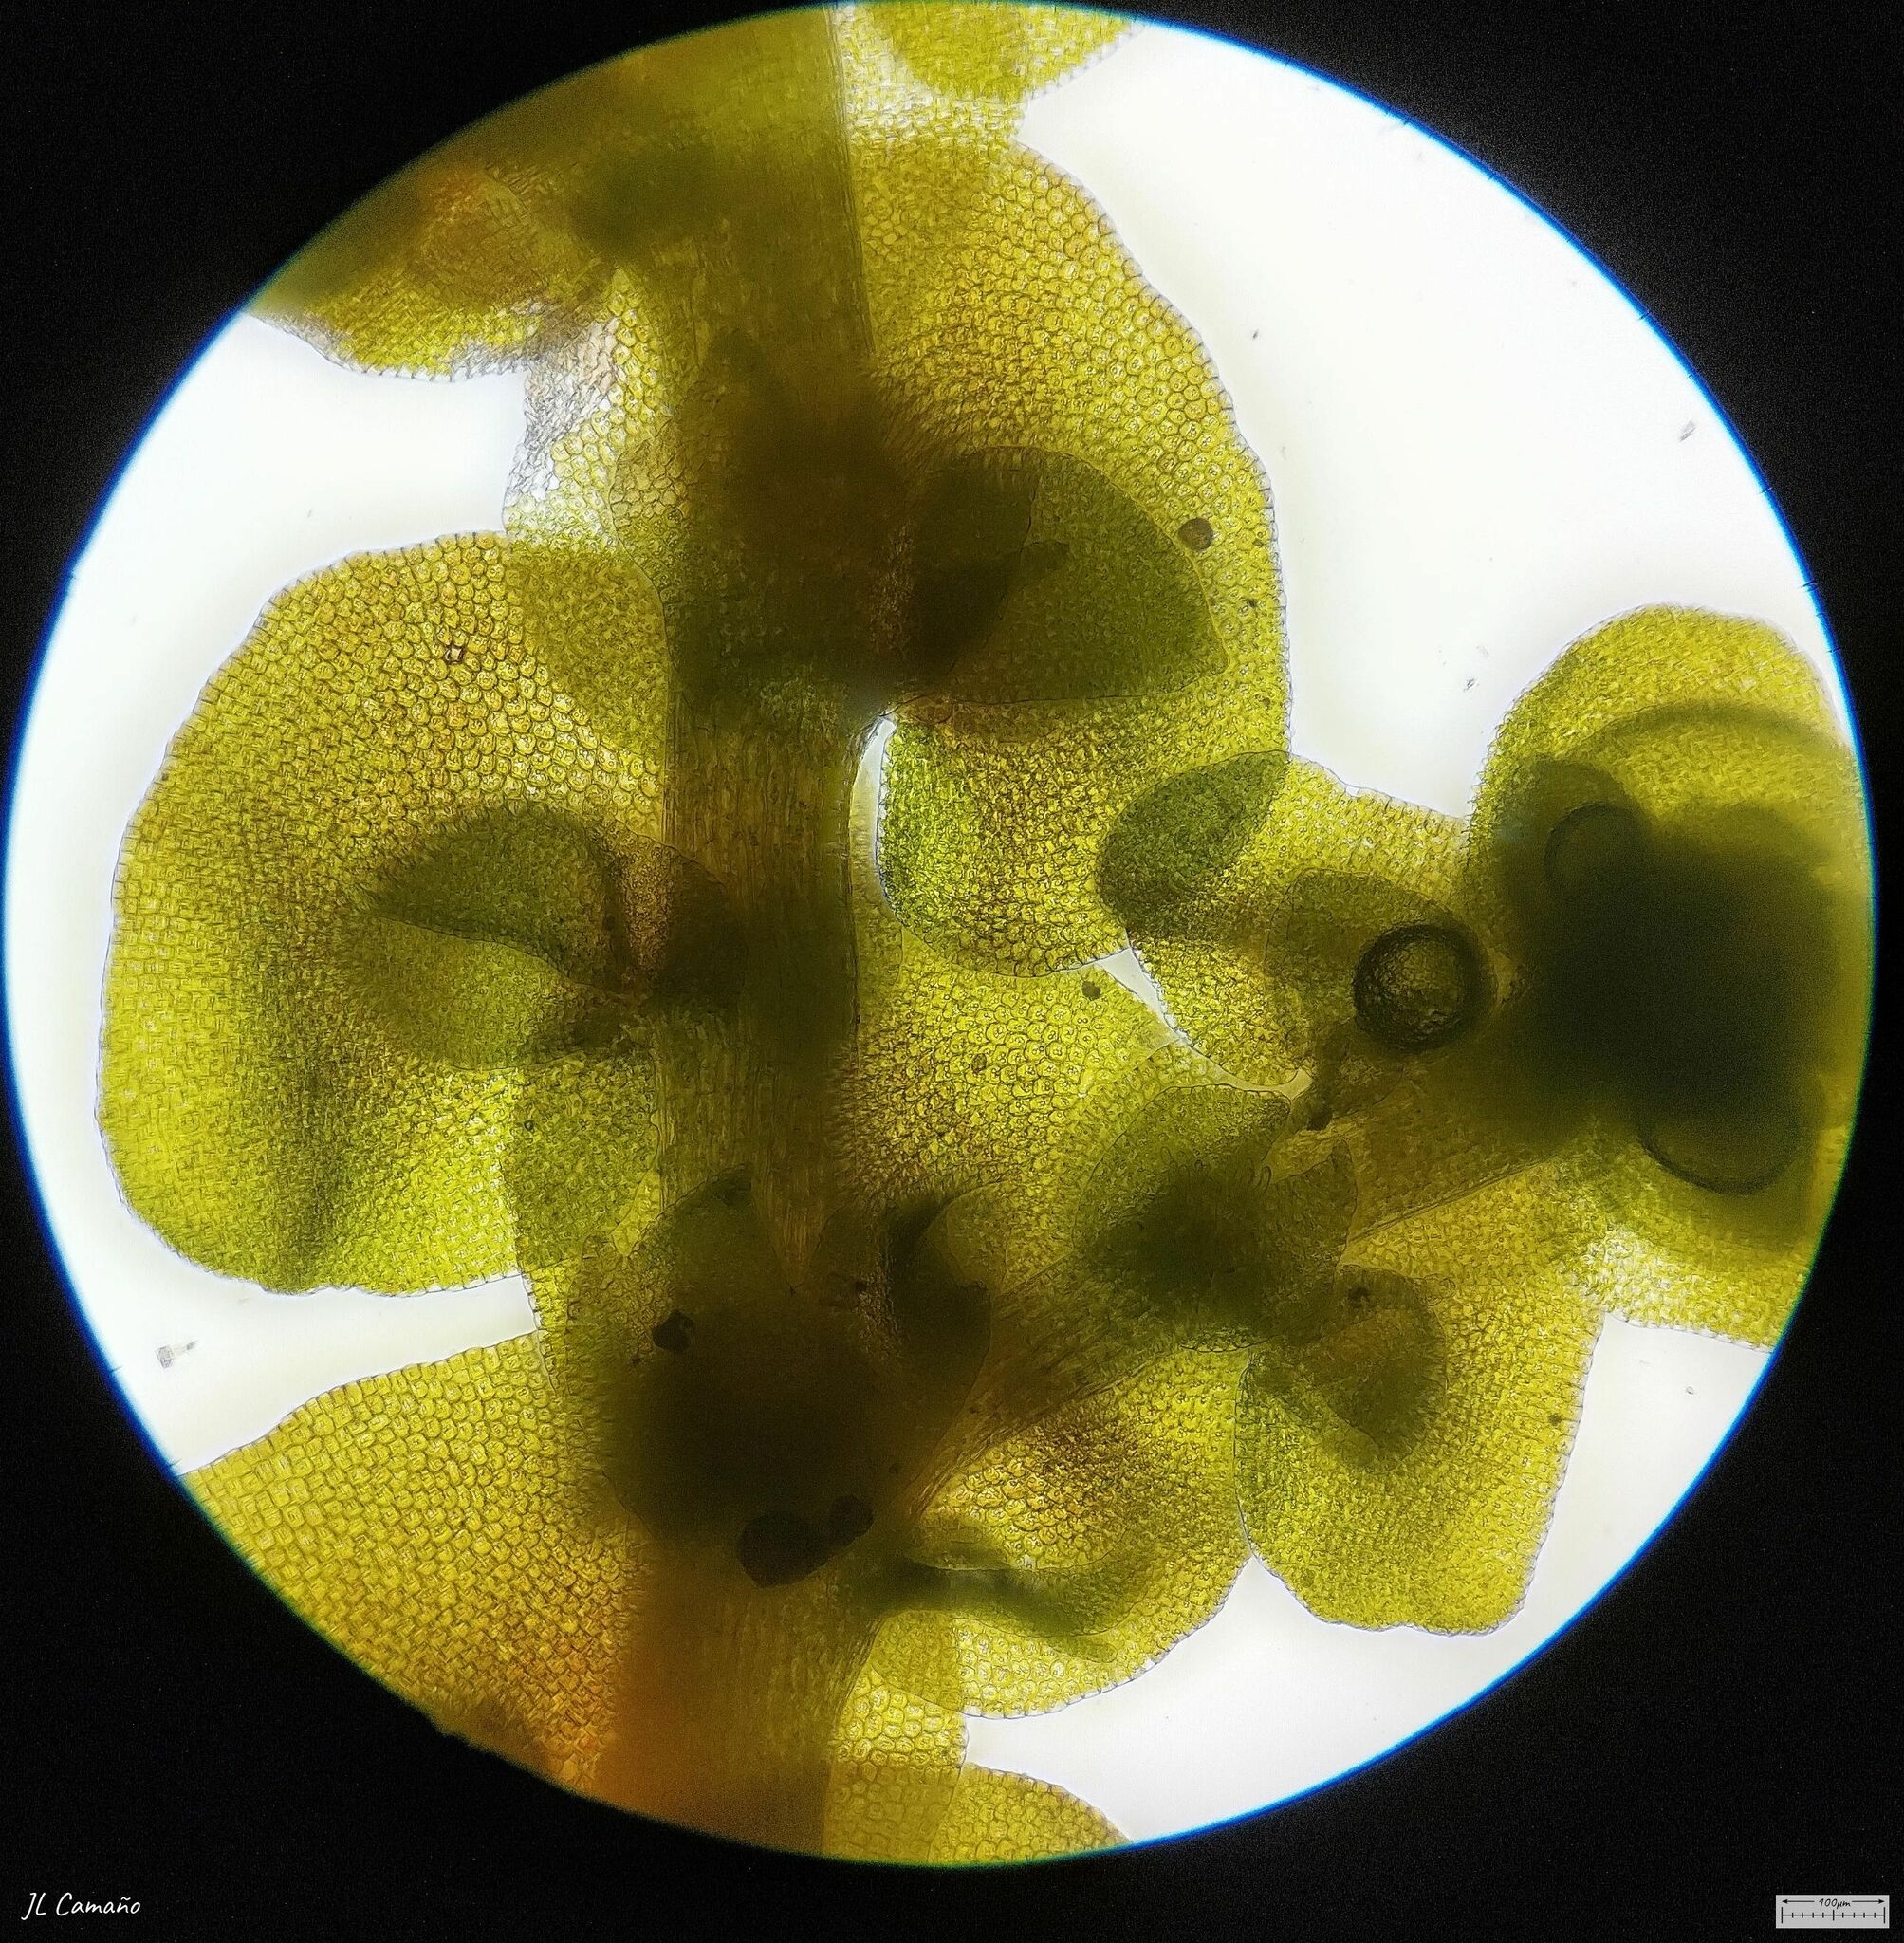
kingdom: Plantae
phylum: Marchantiophyta
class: Jungermanniopsida
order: Porellales
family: Frullaniaceae
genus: Frullania
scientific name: Frullania dilatata
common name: Dilated scalewort
